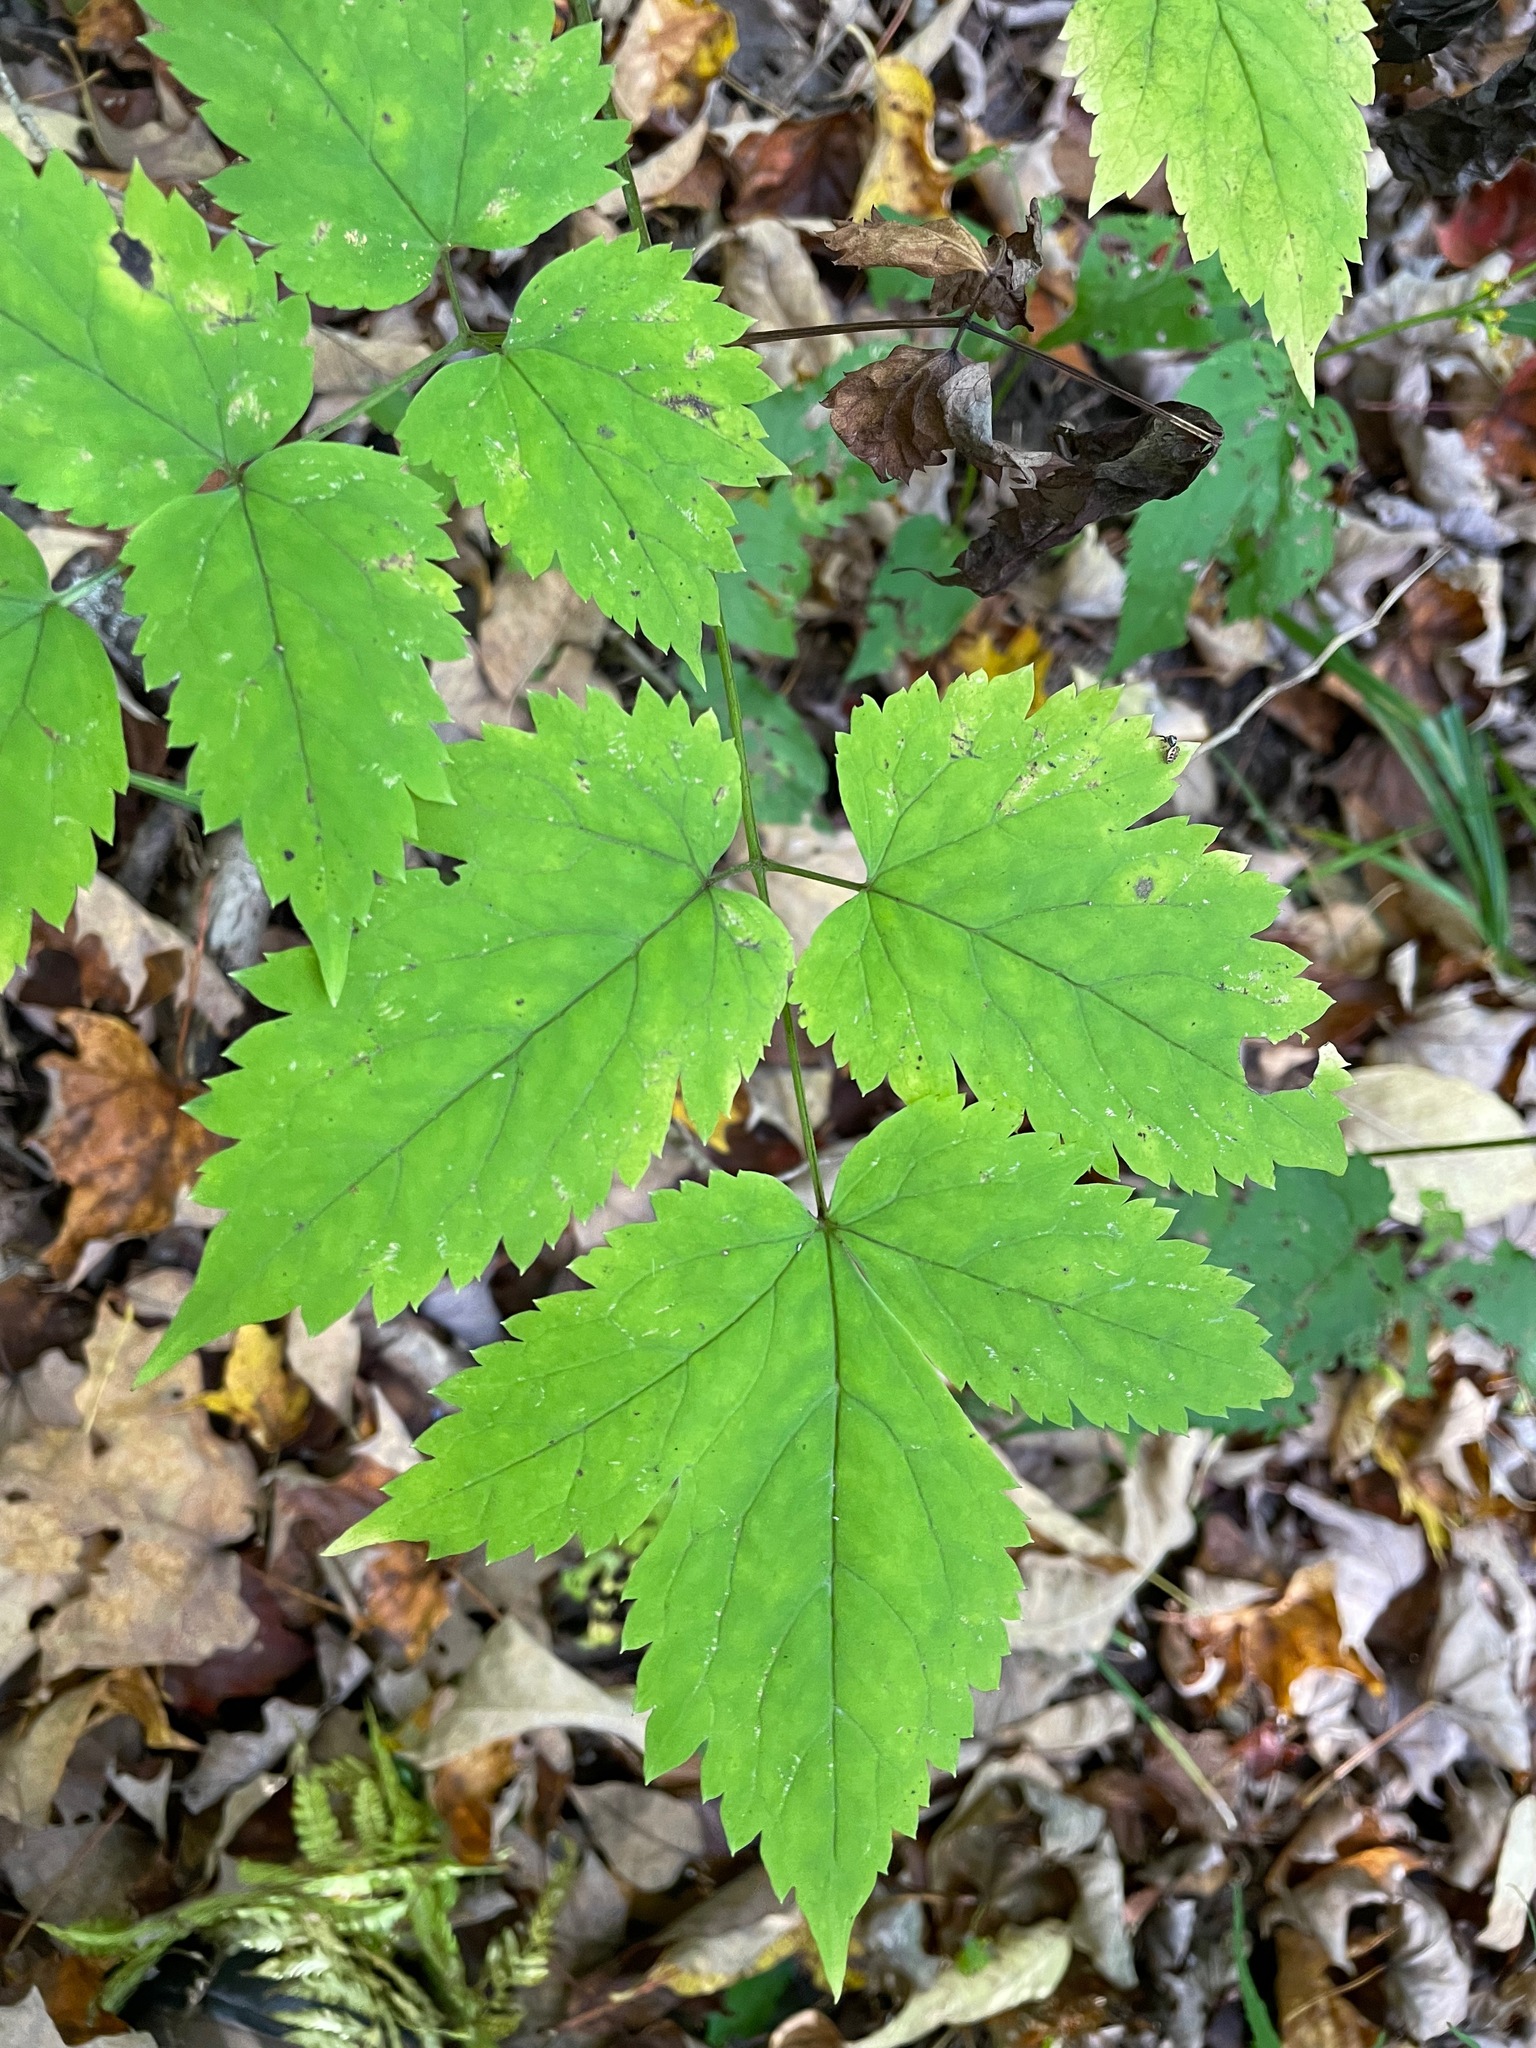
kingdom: Plantae
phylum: Tracheophyta
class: Magnoliopsida
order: Ranunculales
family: Ranunculaceae
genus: Actaea
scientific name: Actaea pachypoda
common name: Doll's-eyes
